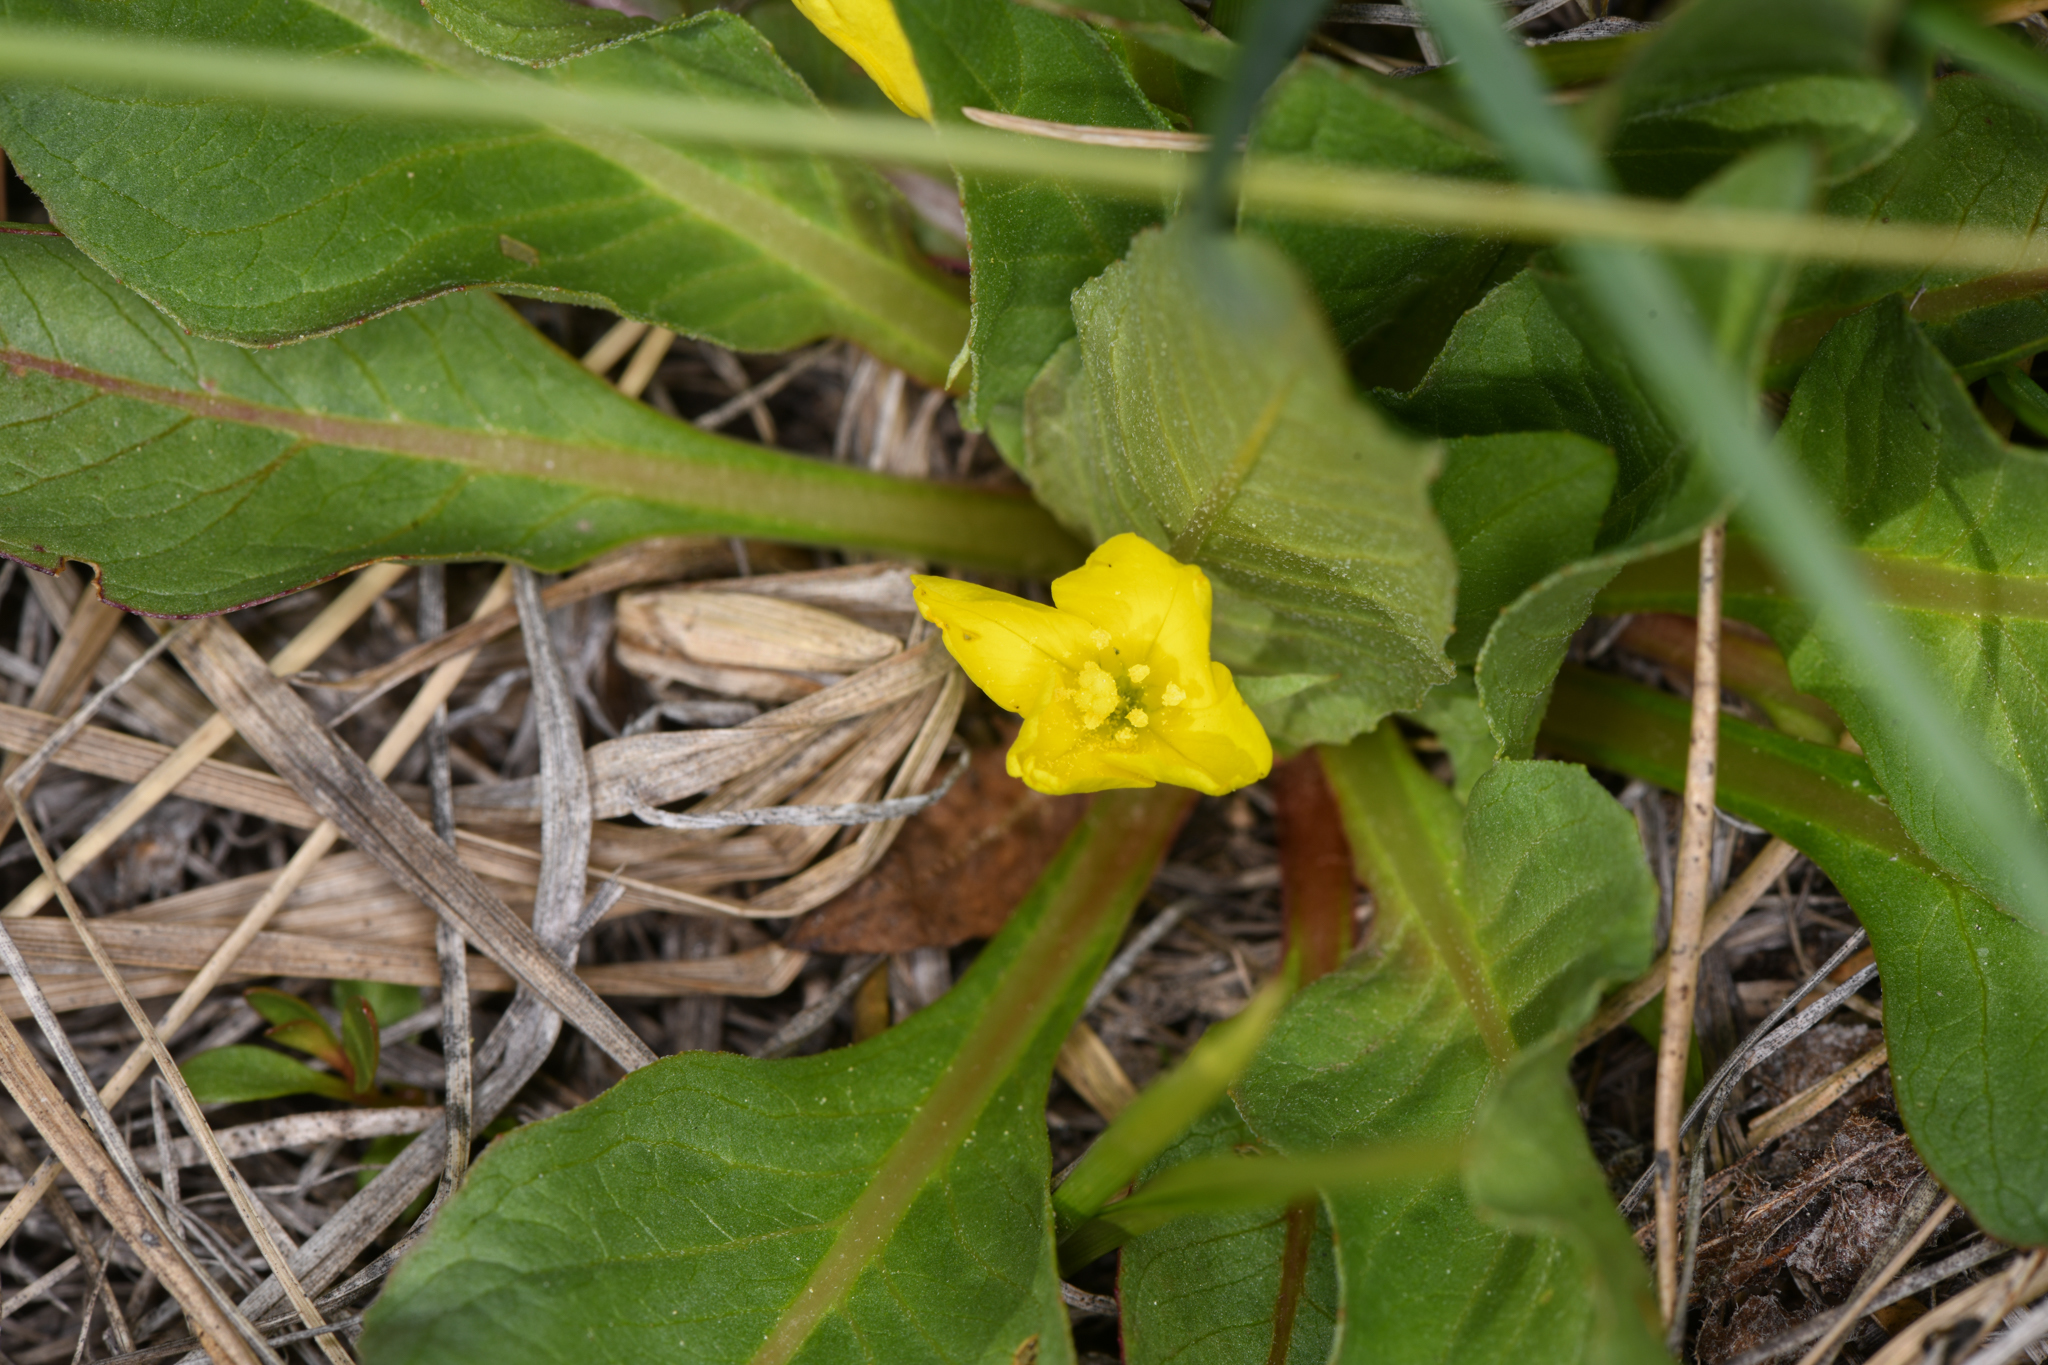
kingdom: Plantae
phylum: Tracheophyta
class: Magnoliopsida
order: Myrtales
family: Onagraceae
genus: Taraxia
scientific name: Taraxia subacaulis
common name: Diffuseflower evening primrose
